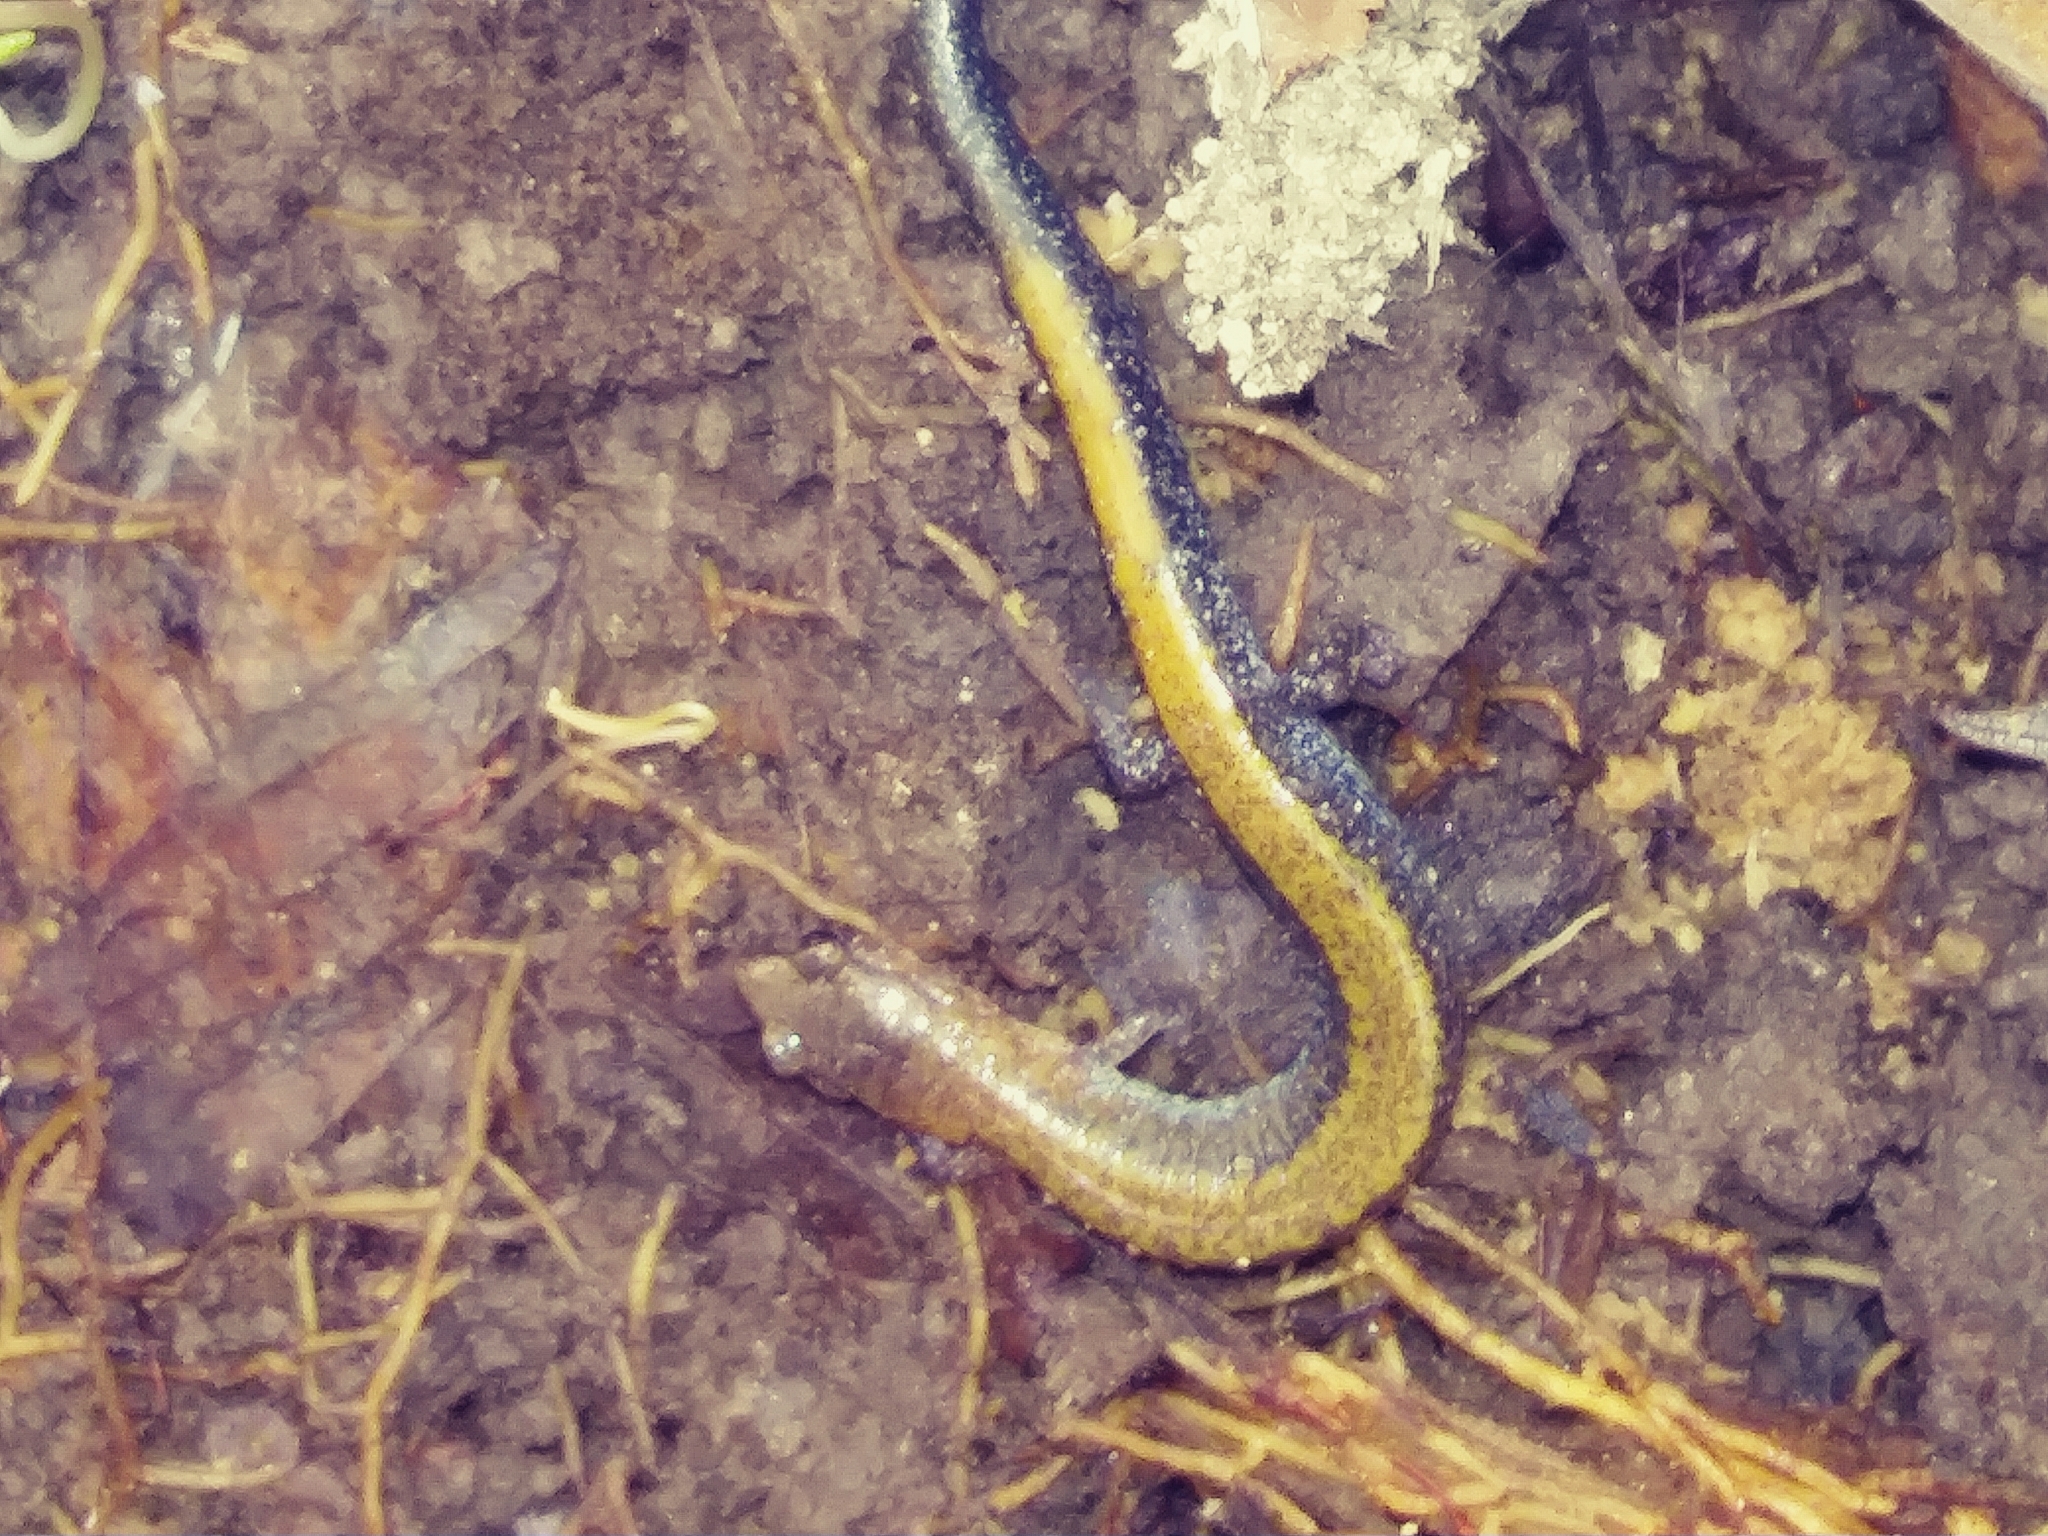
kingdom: Animalia
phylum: Chordata
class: Amphibia
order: Caudata
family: Plethodontidae
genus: Plethodon
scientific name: Plethodon cinereus
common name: Redback salamander
